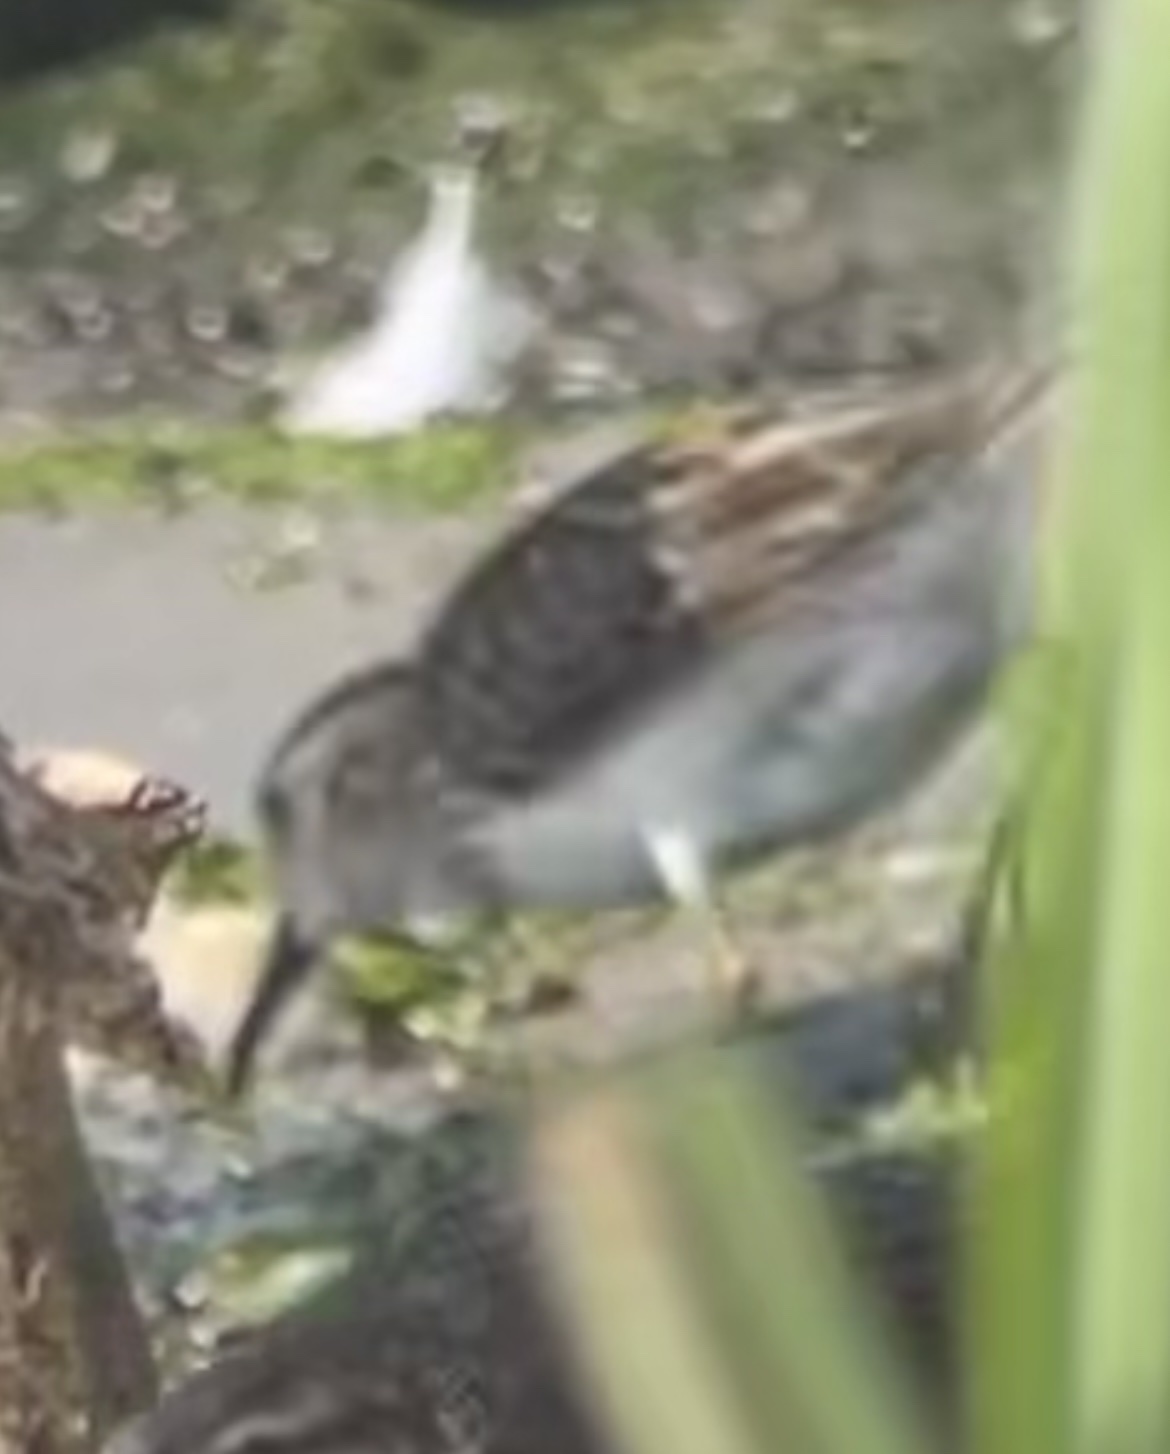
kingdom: Animalia
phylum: Chordata
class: Aves
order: Charadriiformes
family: Scolopacidae
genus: Calidris
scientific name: Calidris minutilla
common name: Least sandpiper
